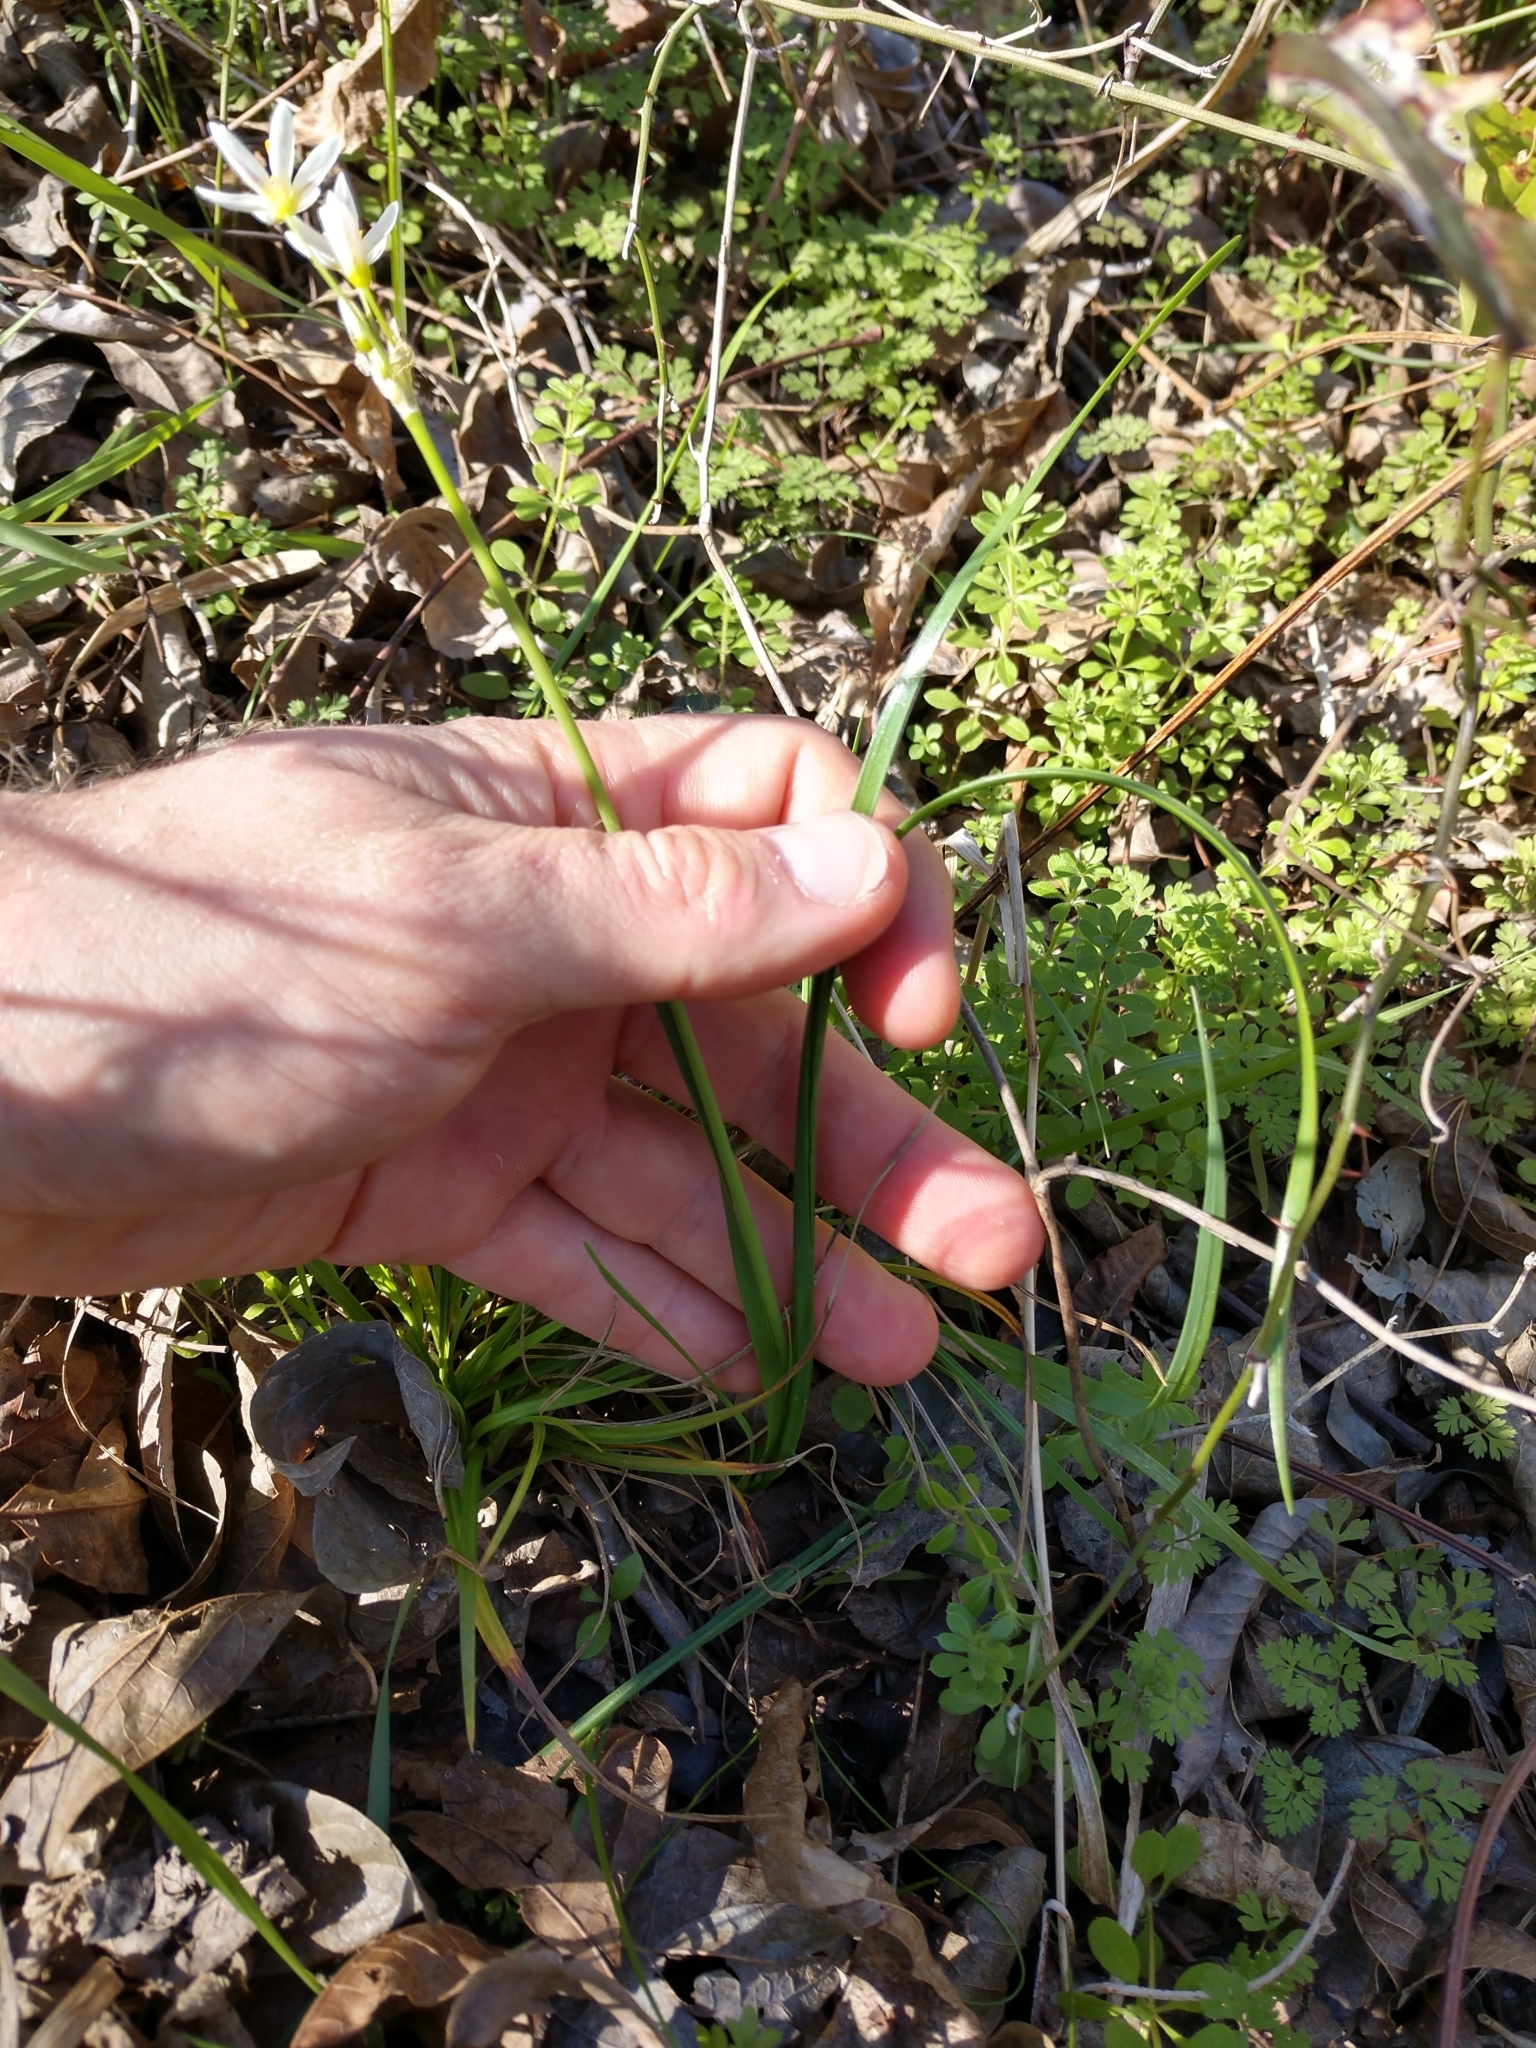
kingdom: Plantae
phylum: Tracheophyta
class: Liliopsida
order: Asparagales
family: Amaryllidaceae
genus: Nothoscordum
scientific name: Nothoscordum bivalve
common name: Crow-poison
